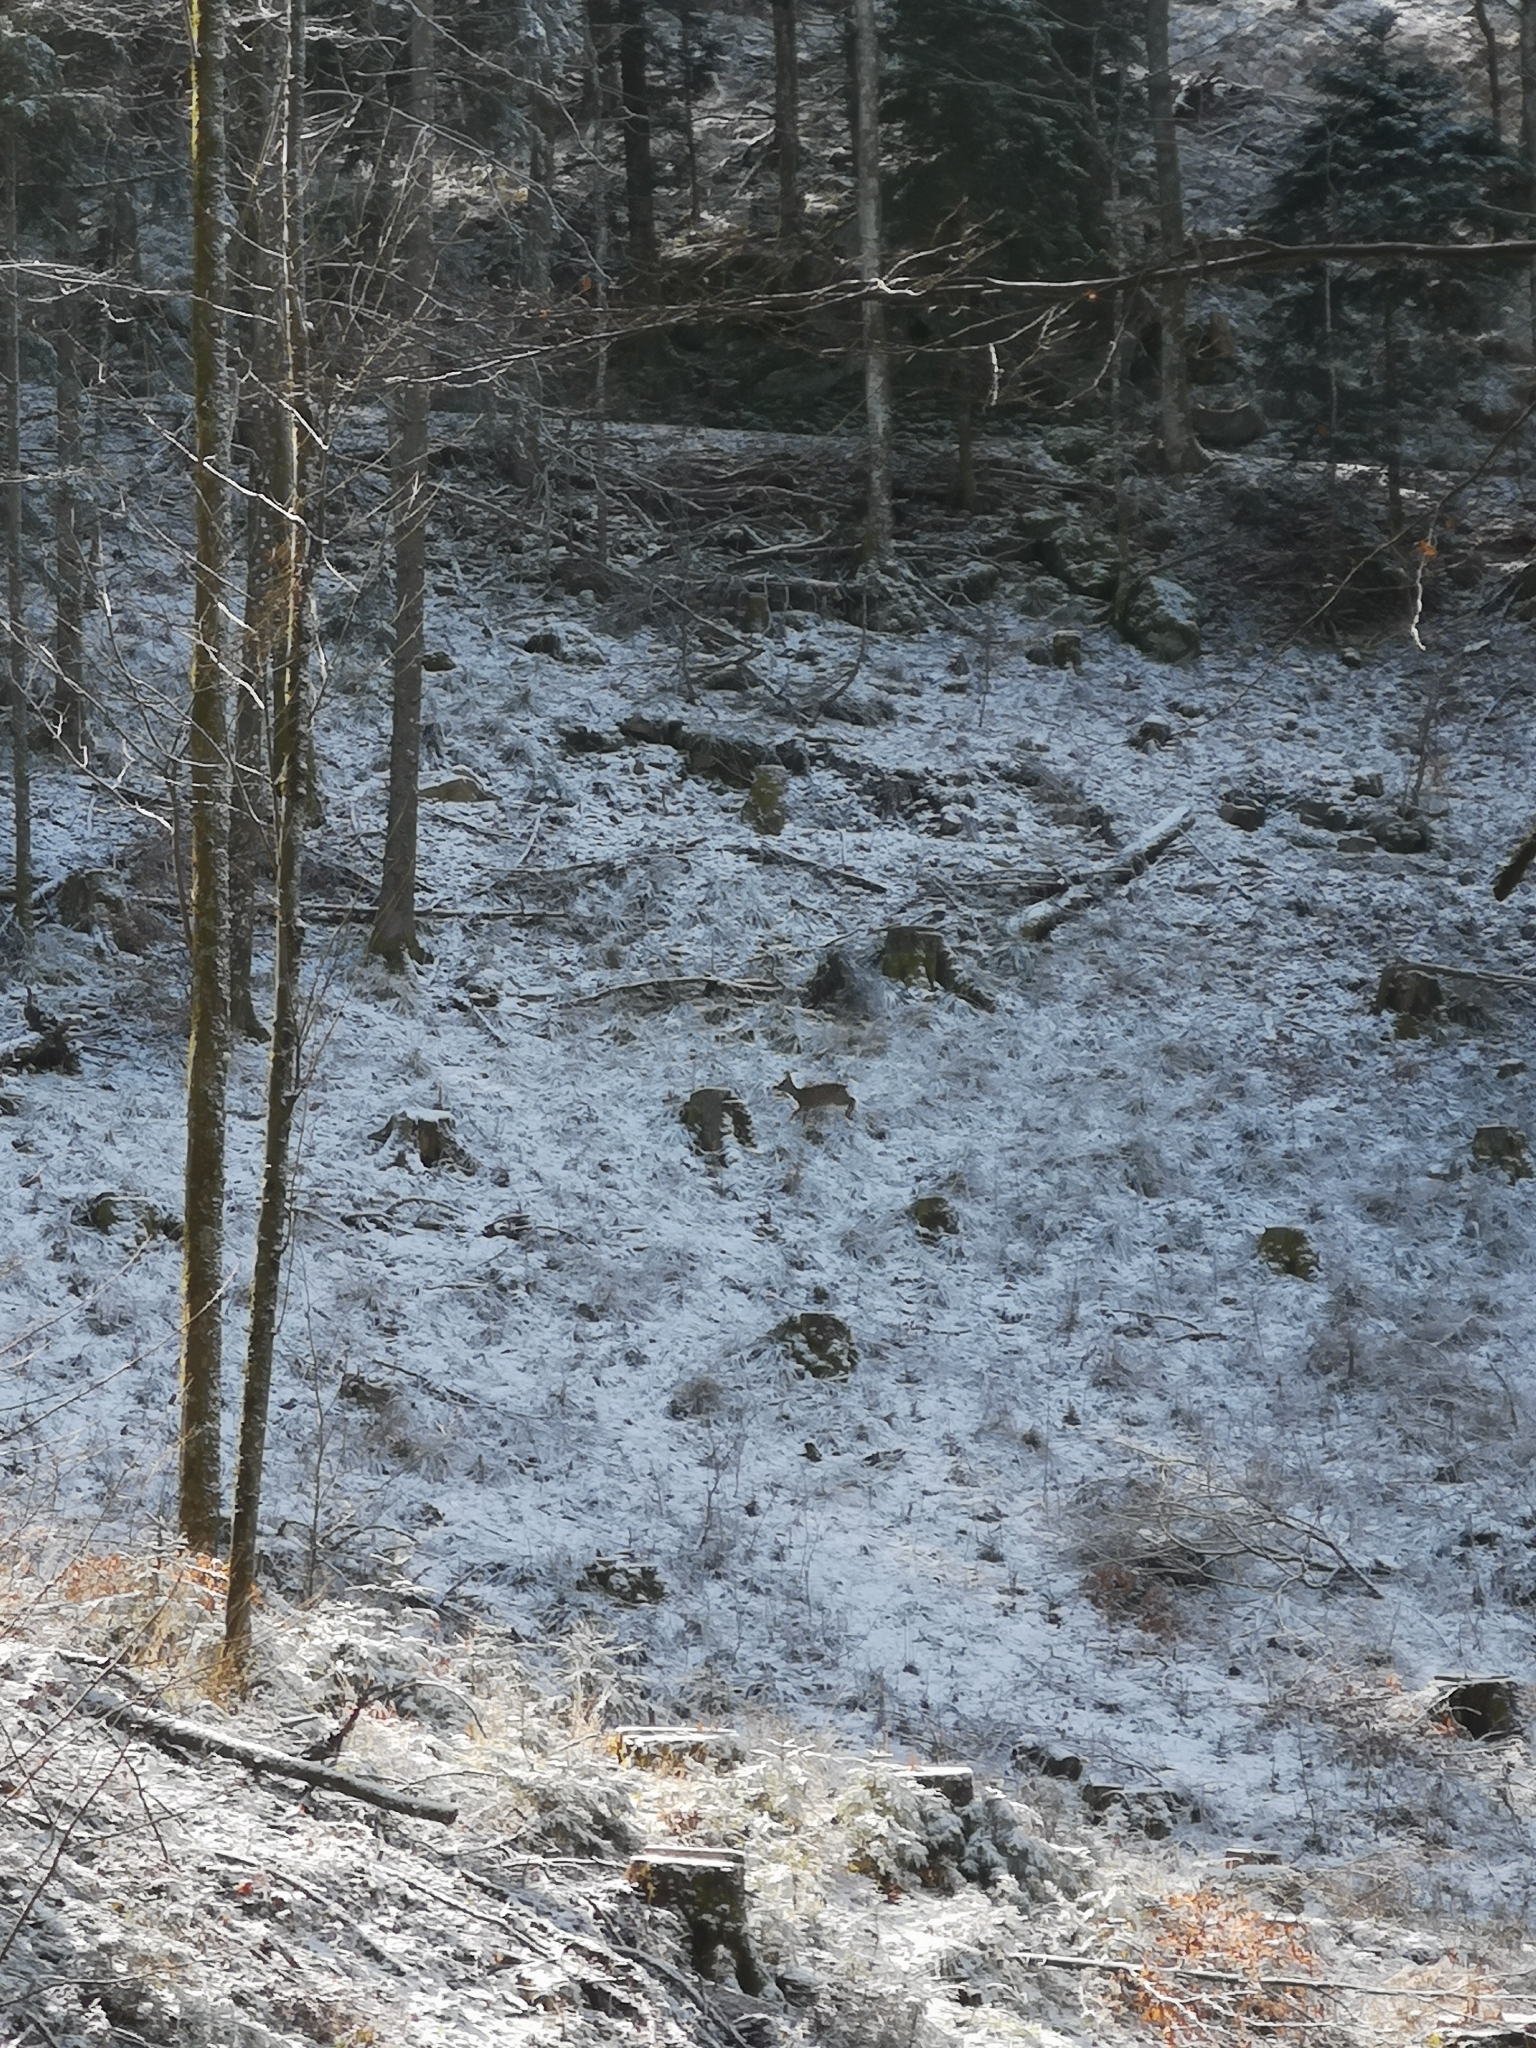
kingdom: Animalia
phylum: Chordata
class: Mammalia
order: Artiodactyla
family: Cervidae
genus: Capreolus
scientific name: Capreolus capreolus
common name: Western roe deer
